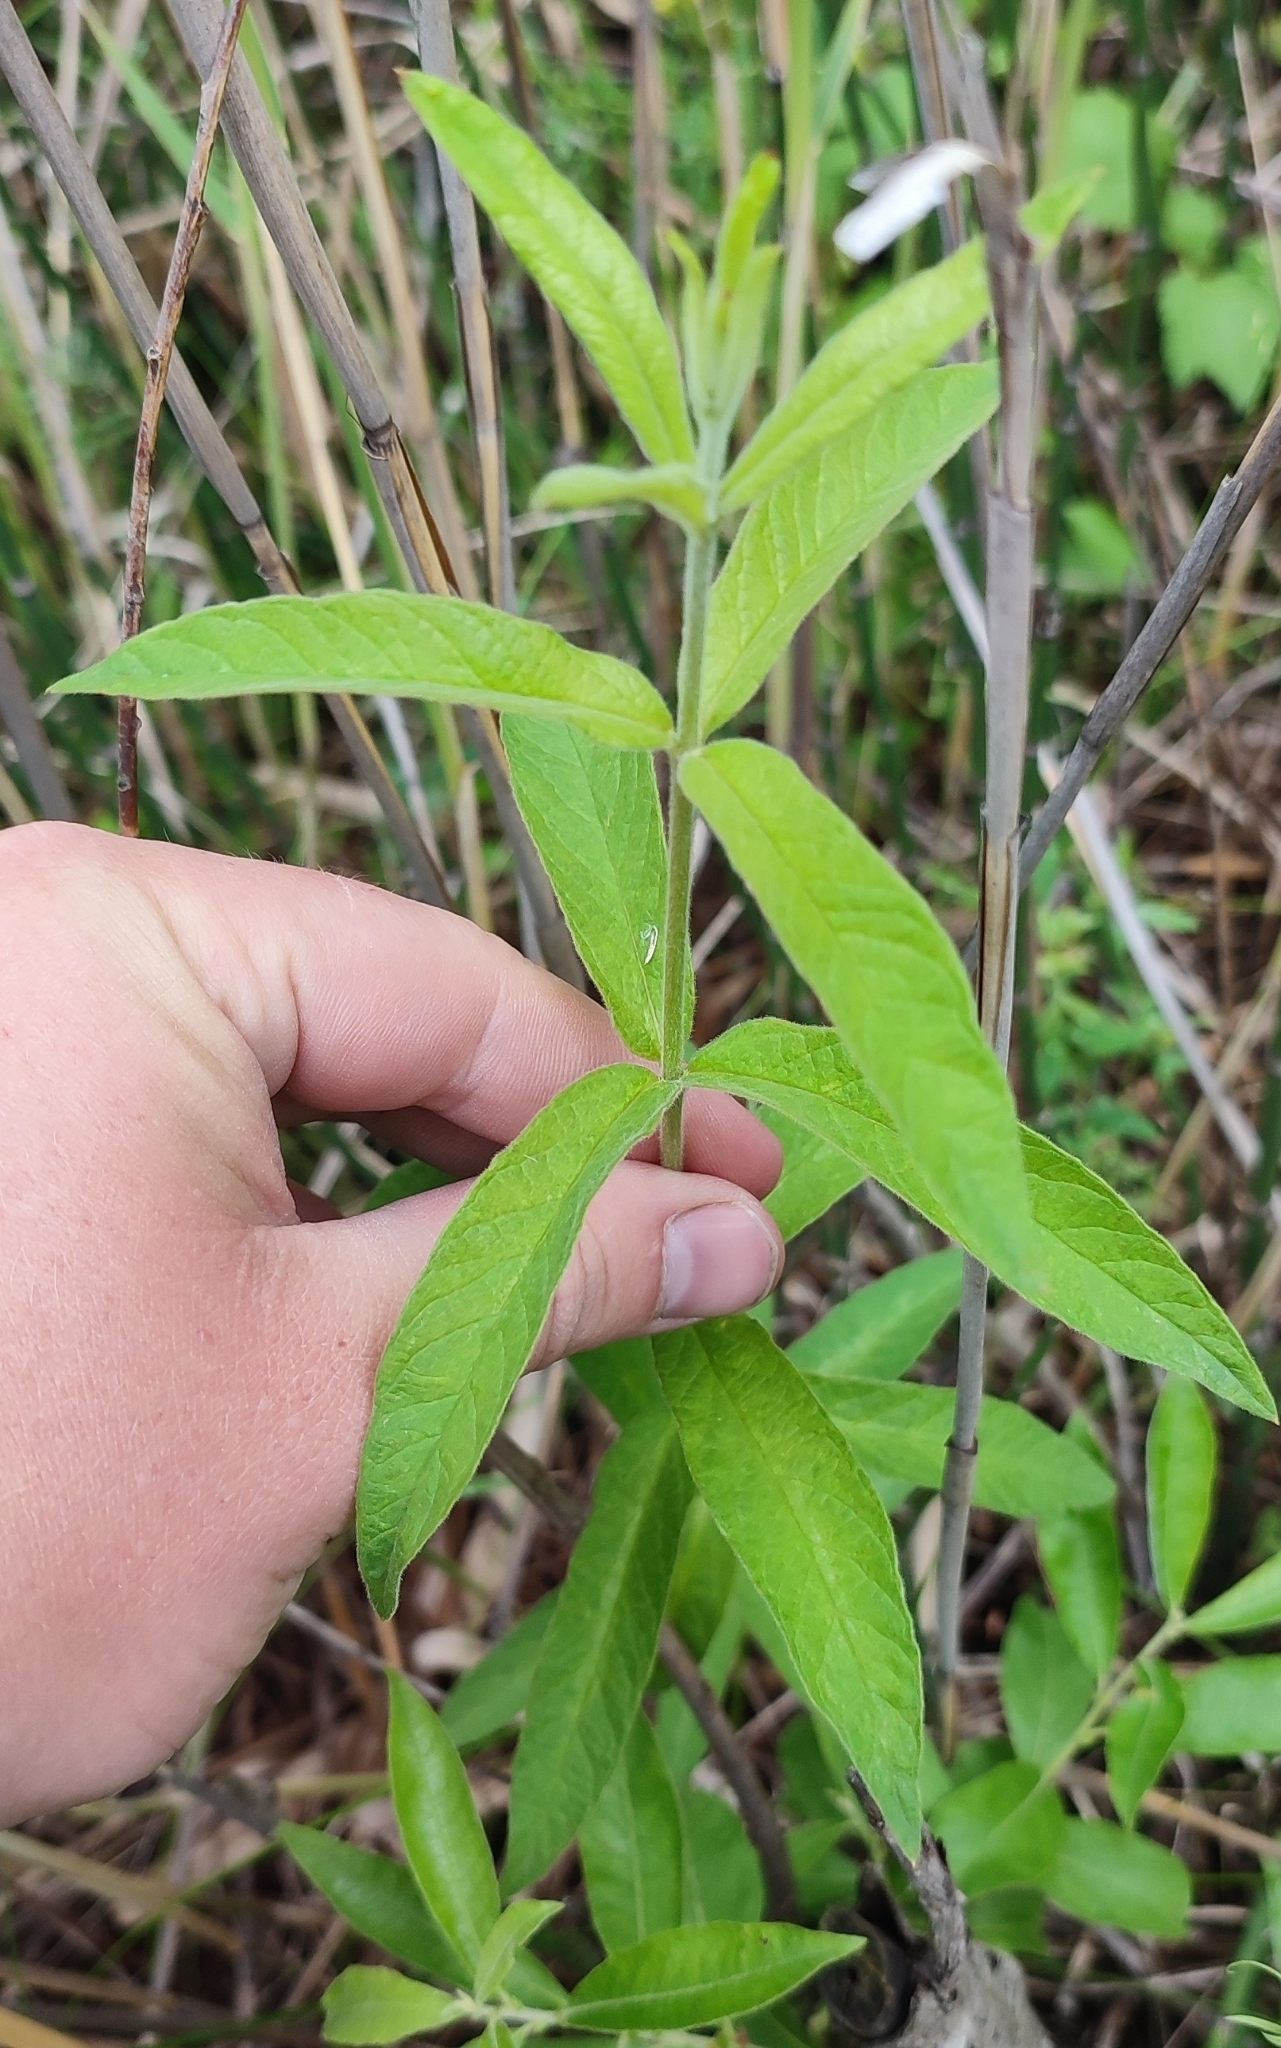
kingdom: Plantae
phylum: Tracheophyta
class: Magnoliopsida
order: Ericales
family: Primulaceae
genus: Lysimachia
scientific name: Lysimachia vulgaris
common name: Yellow loosestrife
